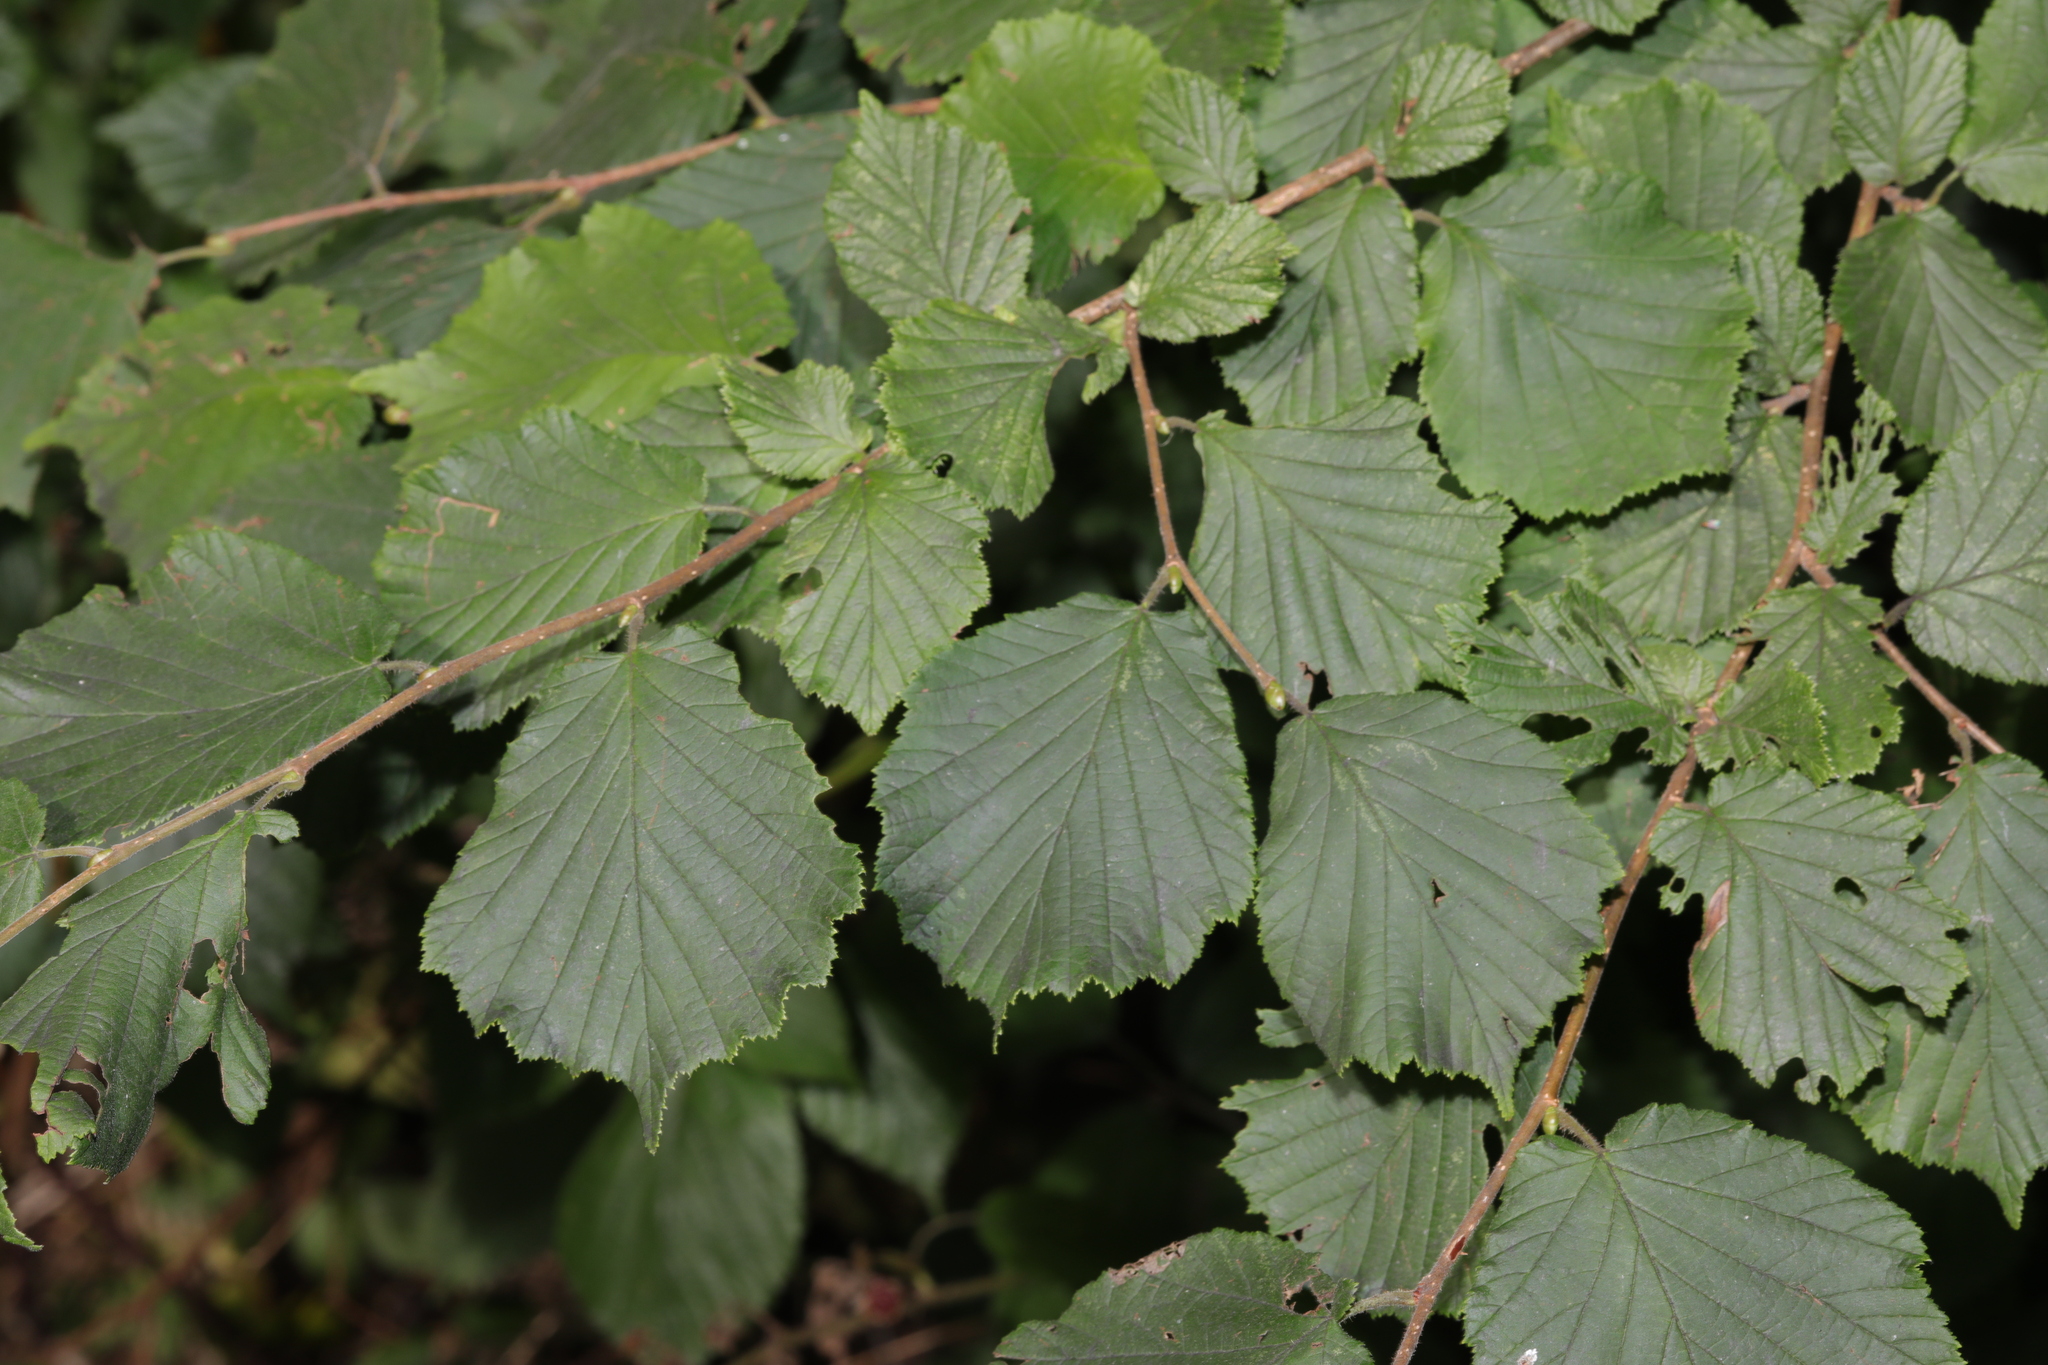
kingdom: Plantae
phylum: Tracheophyta
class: Magnoliopsida
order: Fagales
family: Betulaceae
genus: Corylus
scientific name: Corylus avellana
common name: European hazel
